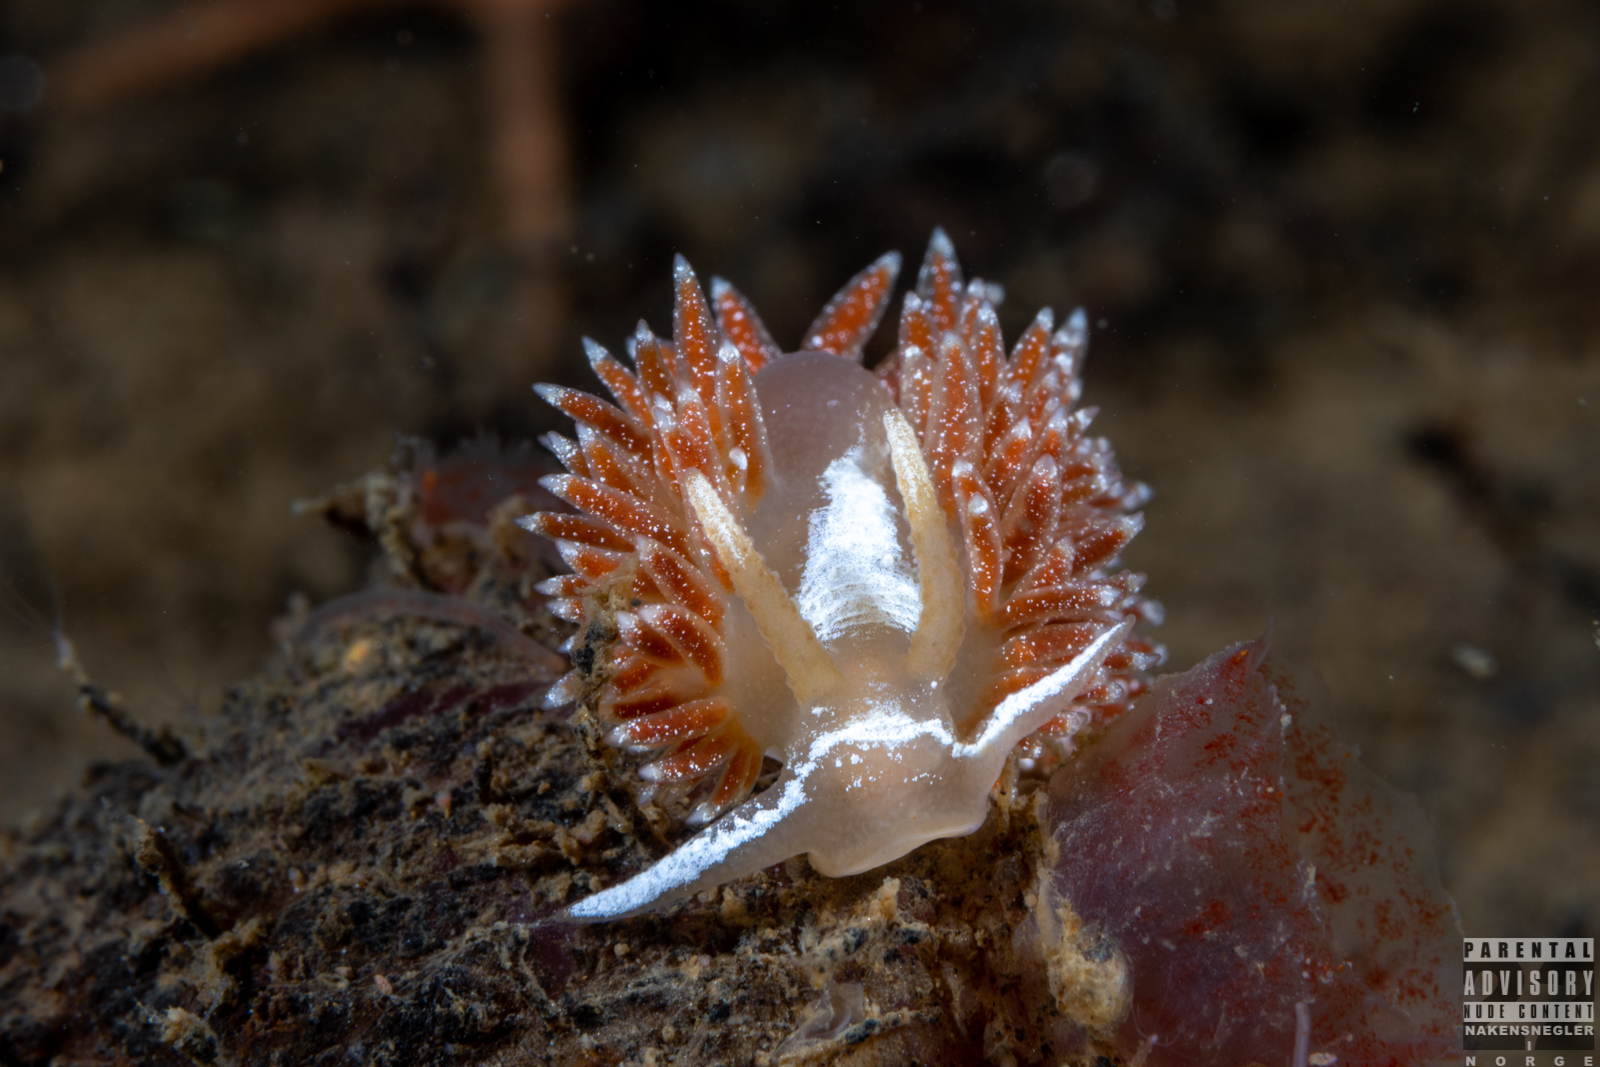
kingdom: Animalia
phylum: Mollusca
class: Gastropoda
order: Nudibranchia
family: Coryphellidae
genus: Coryphella
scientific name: Coryphella monicae
